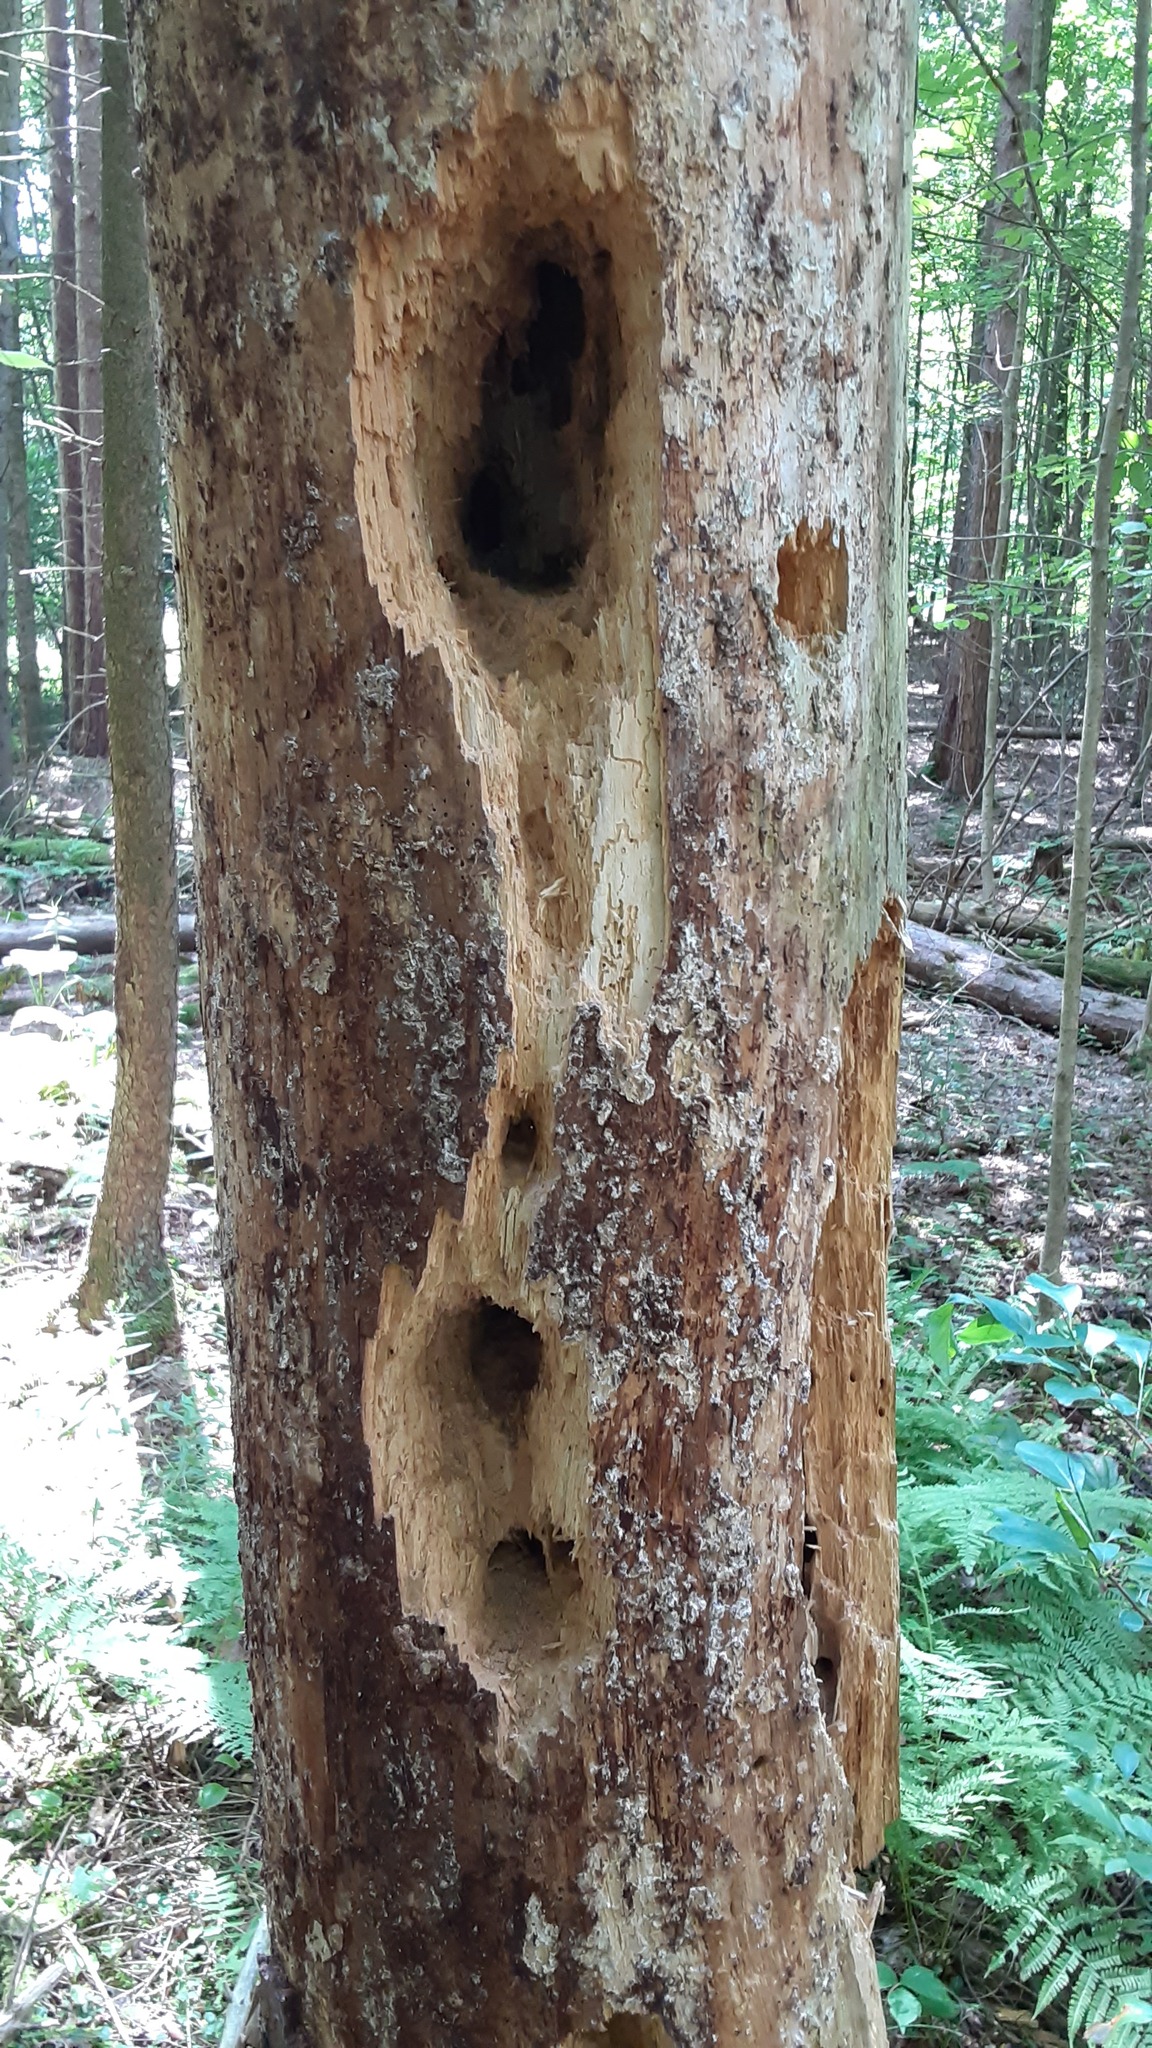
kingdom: Animalia
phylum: Chordata
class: Aves
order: Piciformes
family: Picidae
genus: Dryocopus
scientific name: Dryocopus pileatus
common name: Pileated woodpecker
